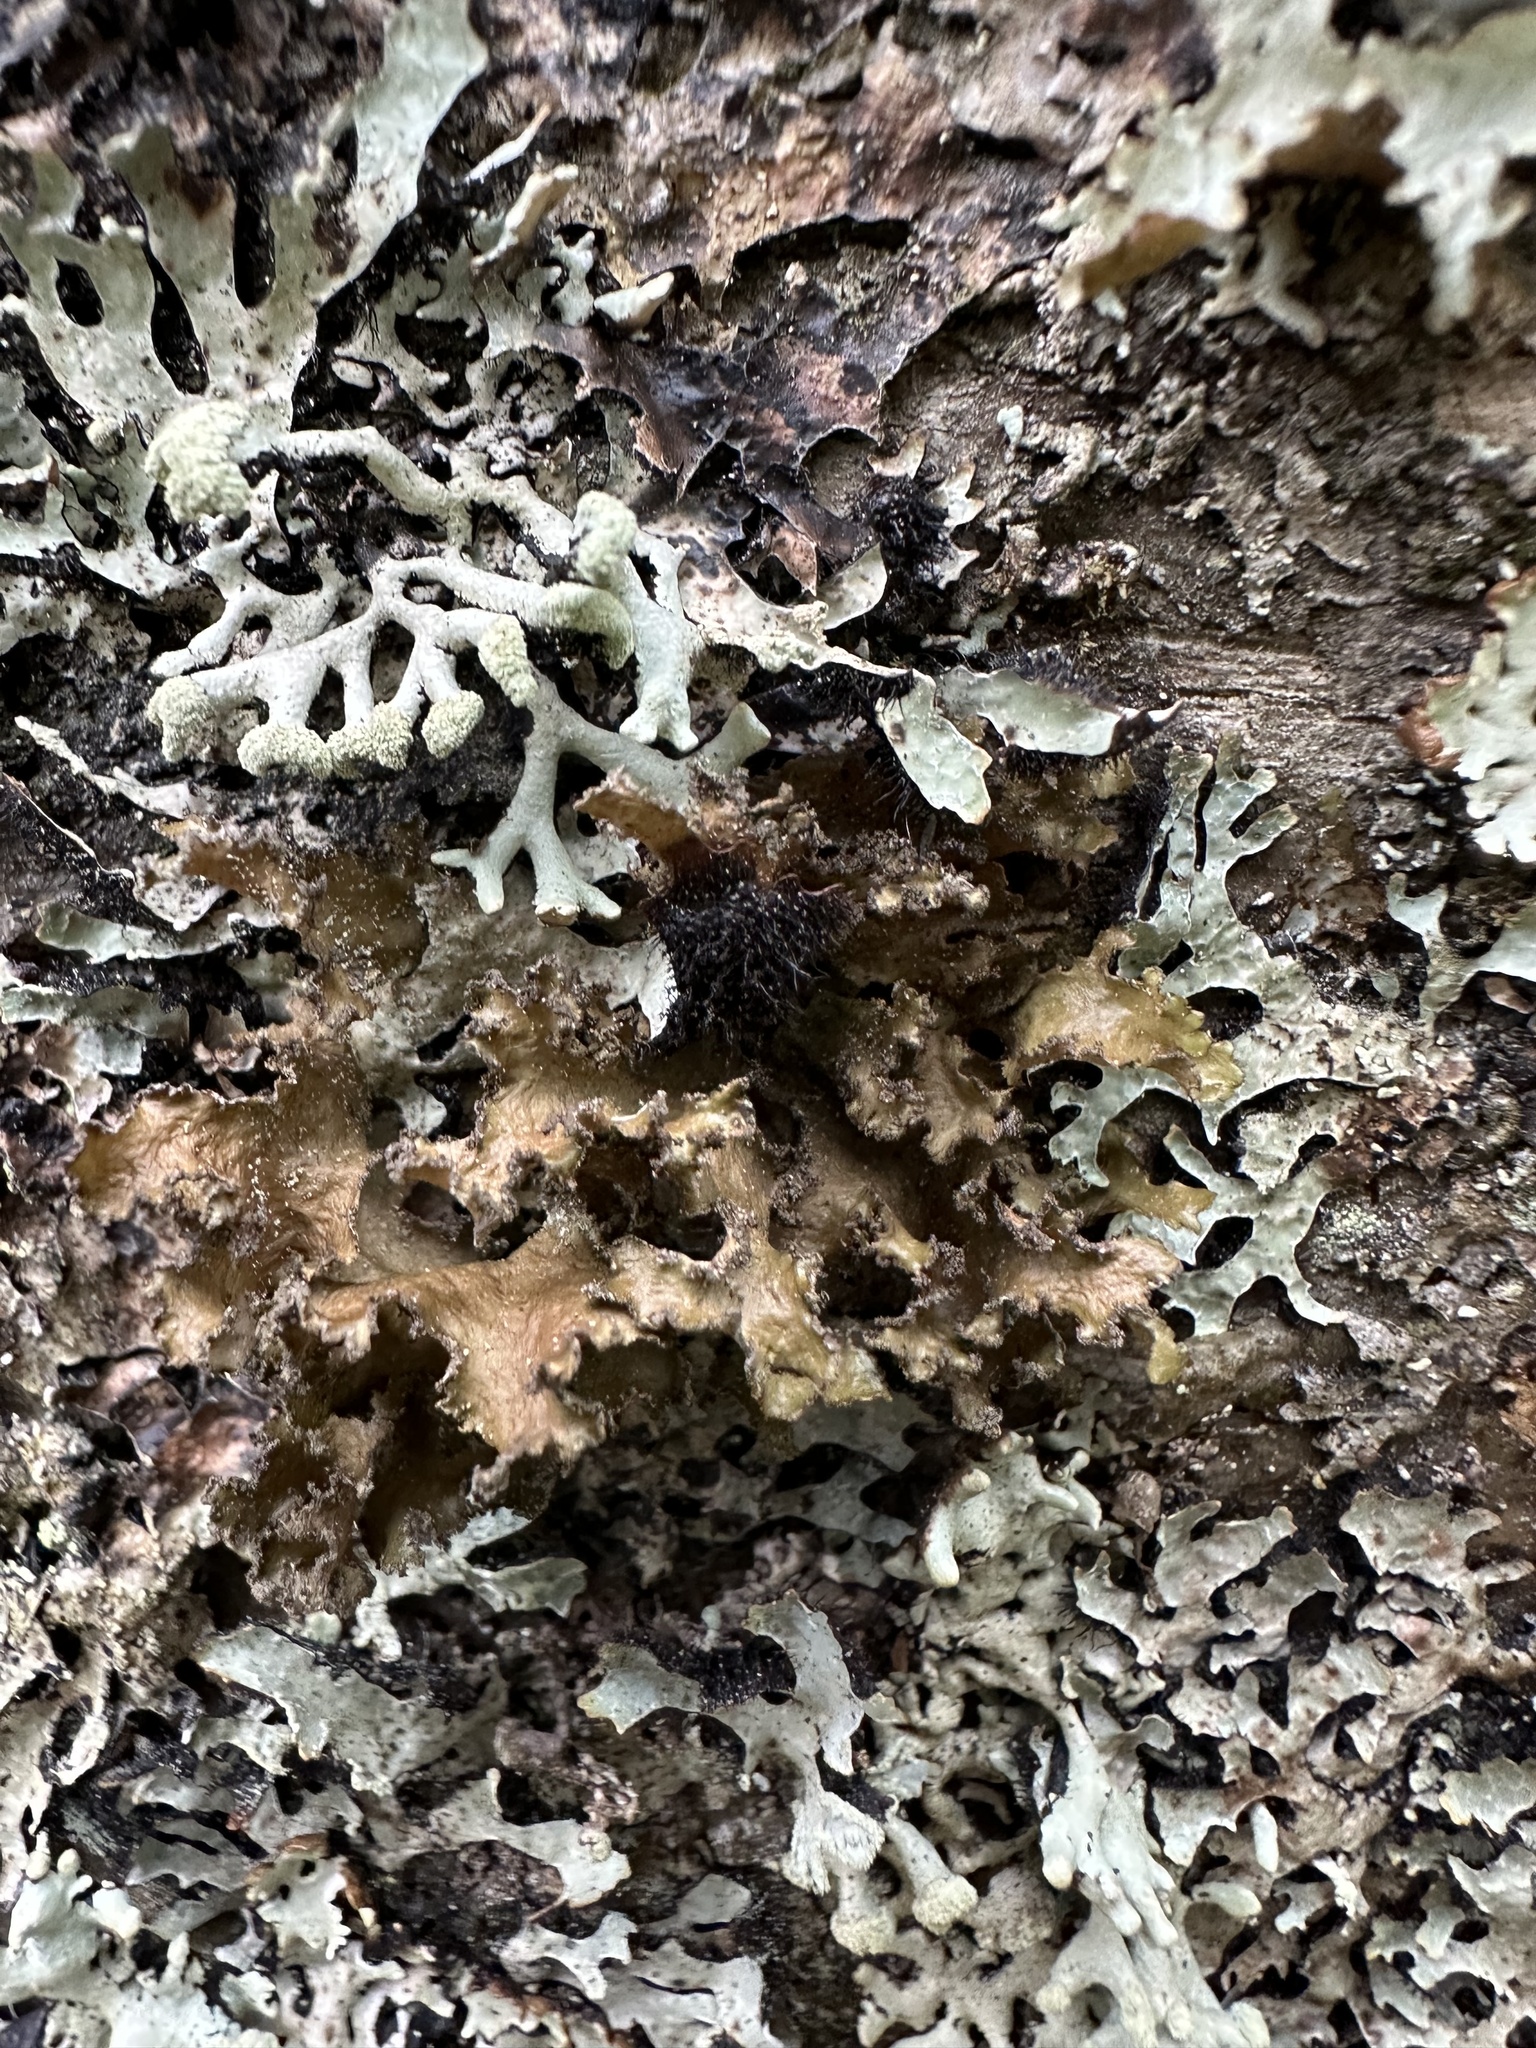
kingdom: Fungi
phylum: Ascomycota
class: Lecanoromycetes
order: Lecanorales
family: Parmeliaceae
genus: Nephromopsis
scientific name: Nephromopsis chlorophylla
